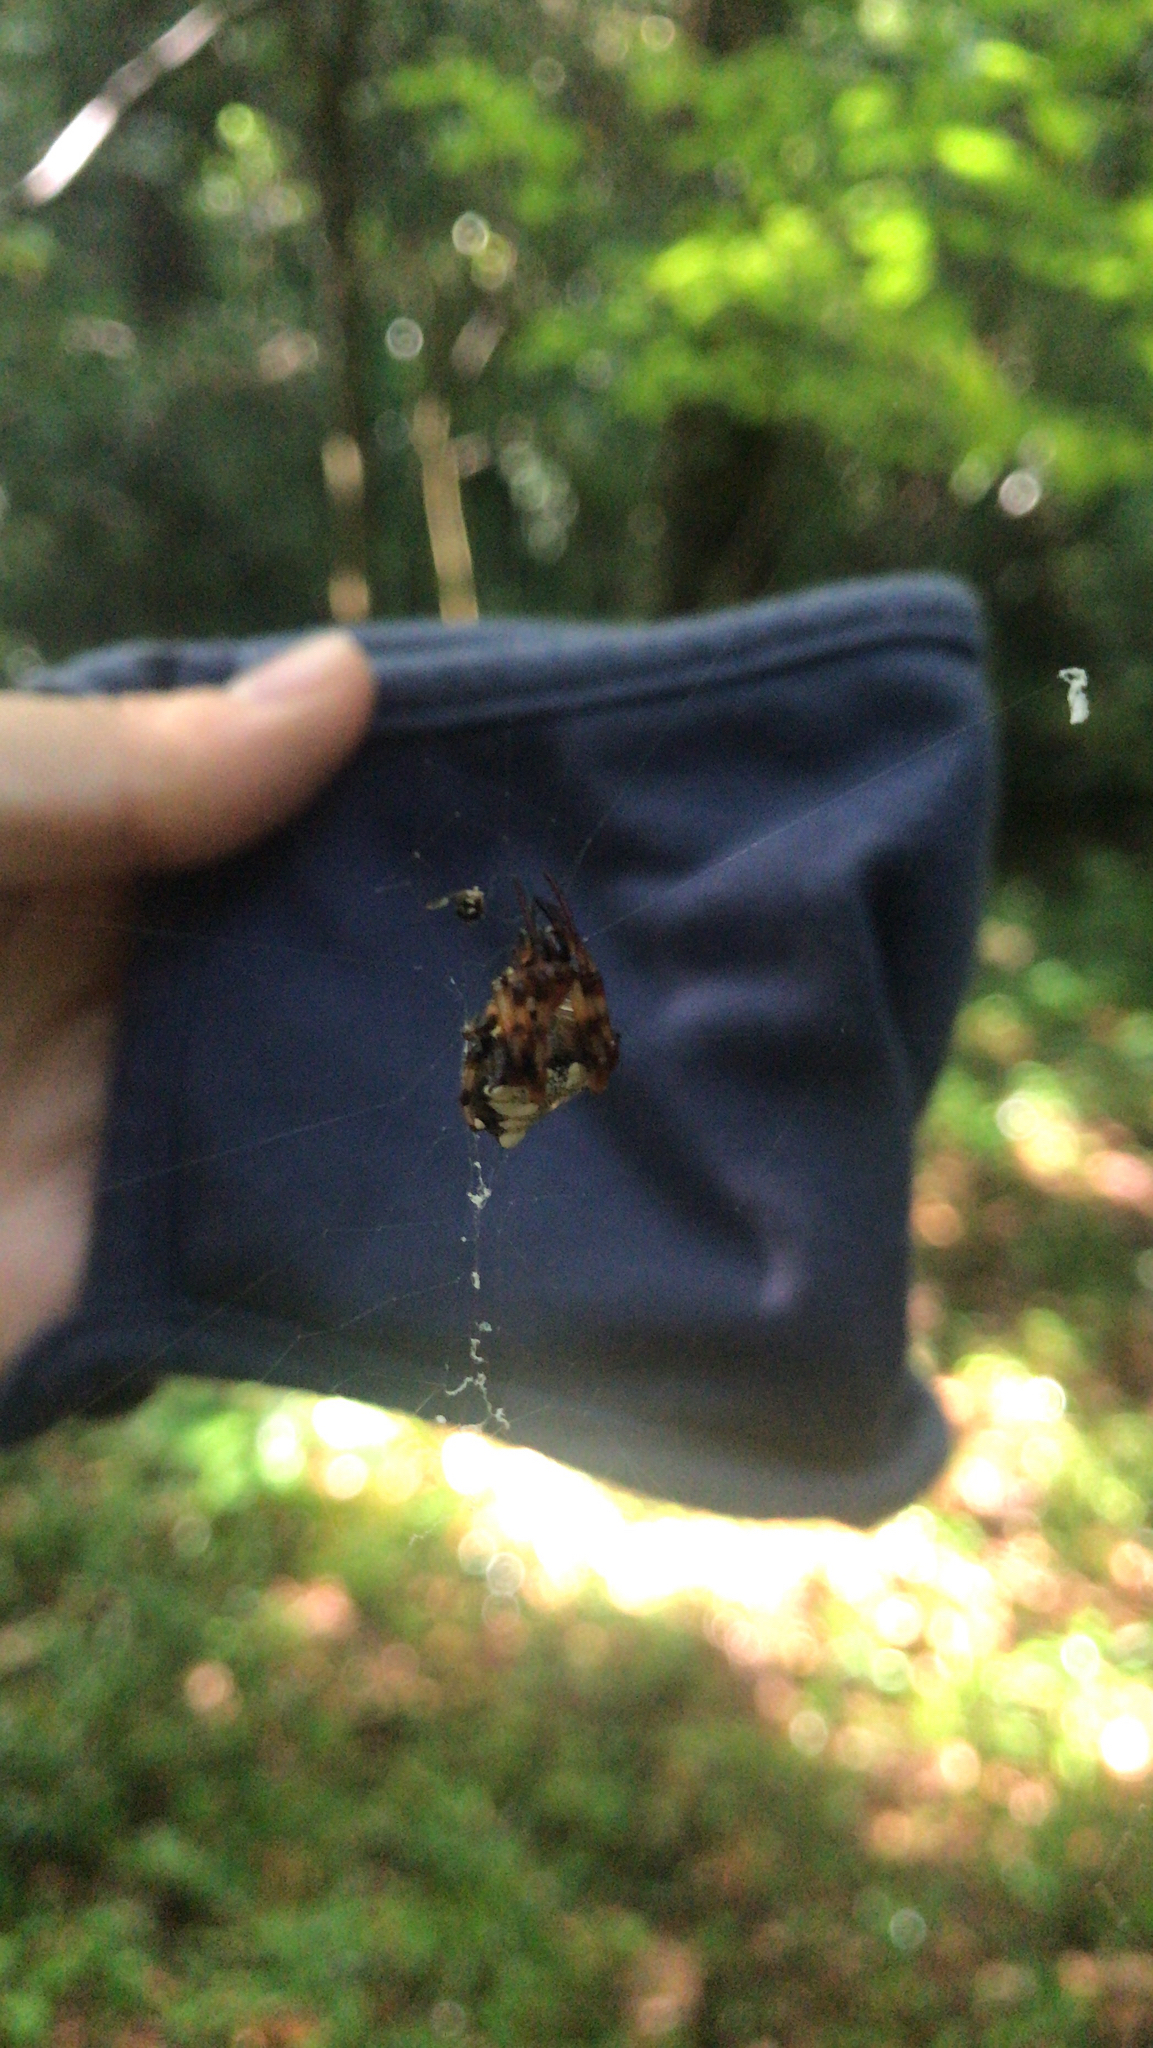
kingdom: Animalia
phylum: Arthropoda
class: Arachnida
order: Araneae
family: Araneidae
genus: Verrucosa
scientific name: Verrucosa arenata
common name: Orb weavers
